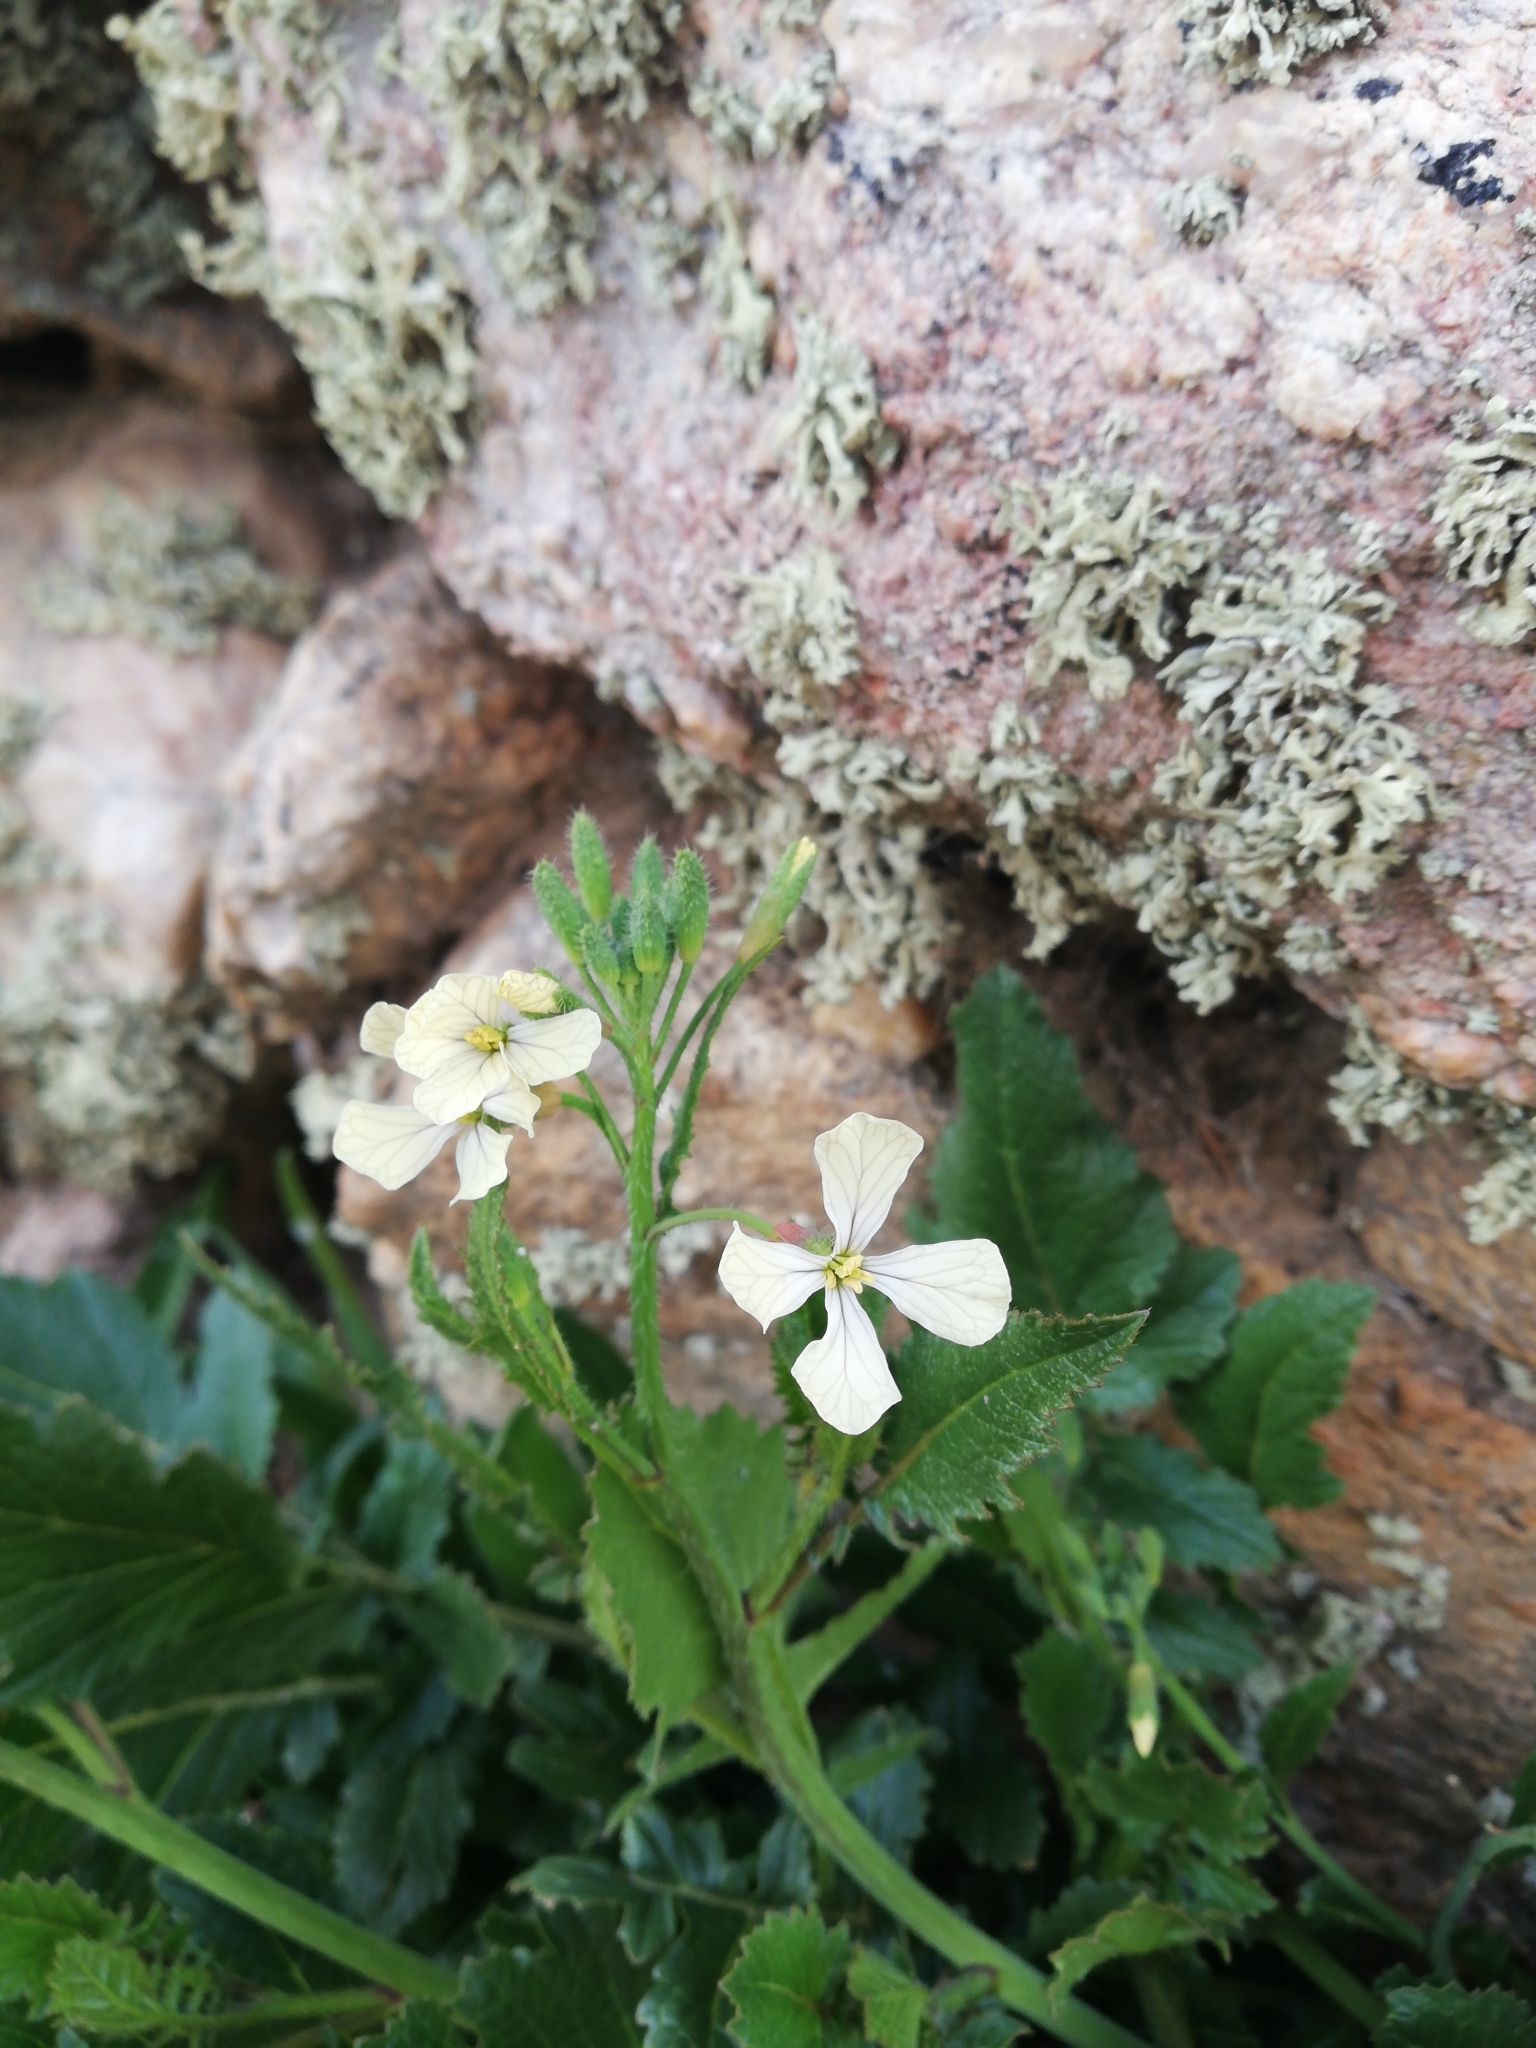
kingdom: Plantae
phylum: Tracheophyta
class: Magnoliopsida
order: Brassicales
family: Brassicaceae
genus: Raphanus
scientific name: Raphanus raphanistrum
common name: Wild radish
